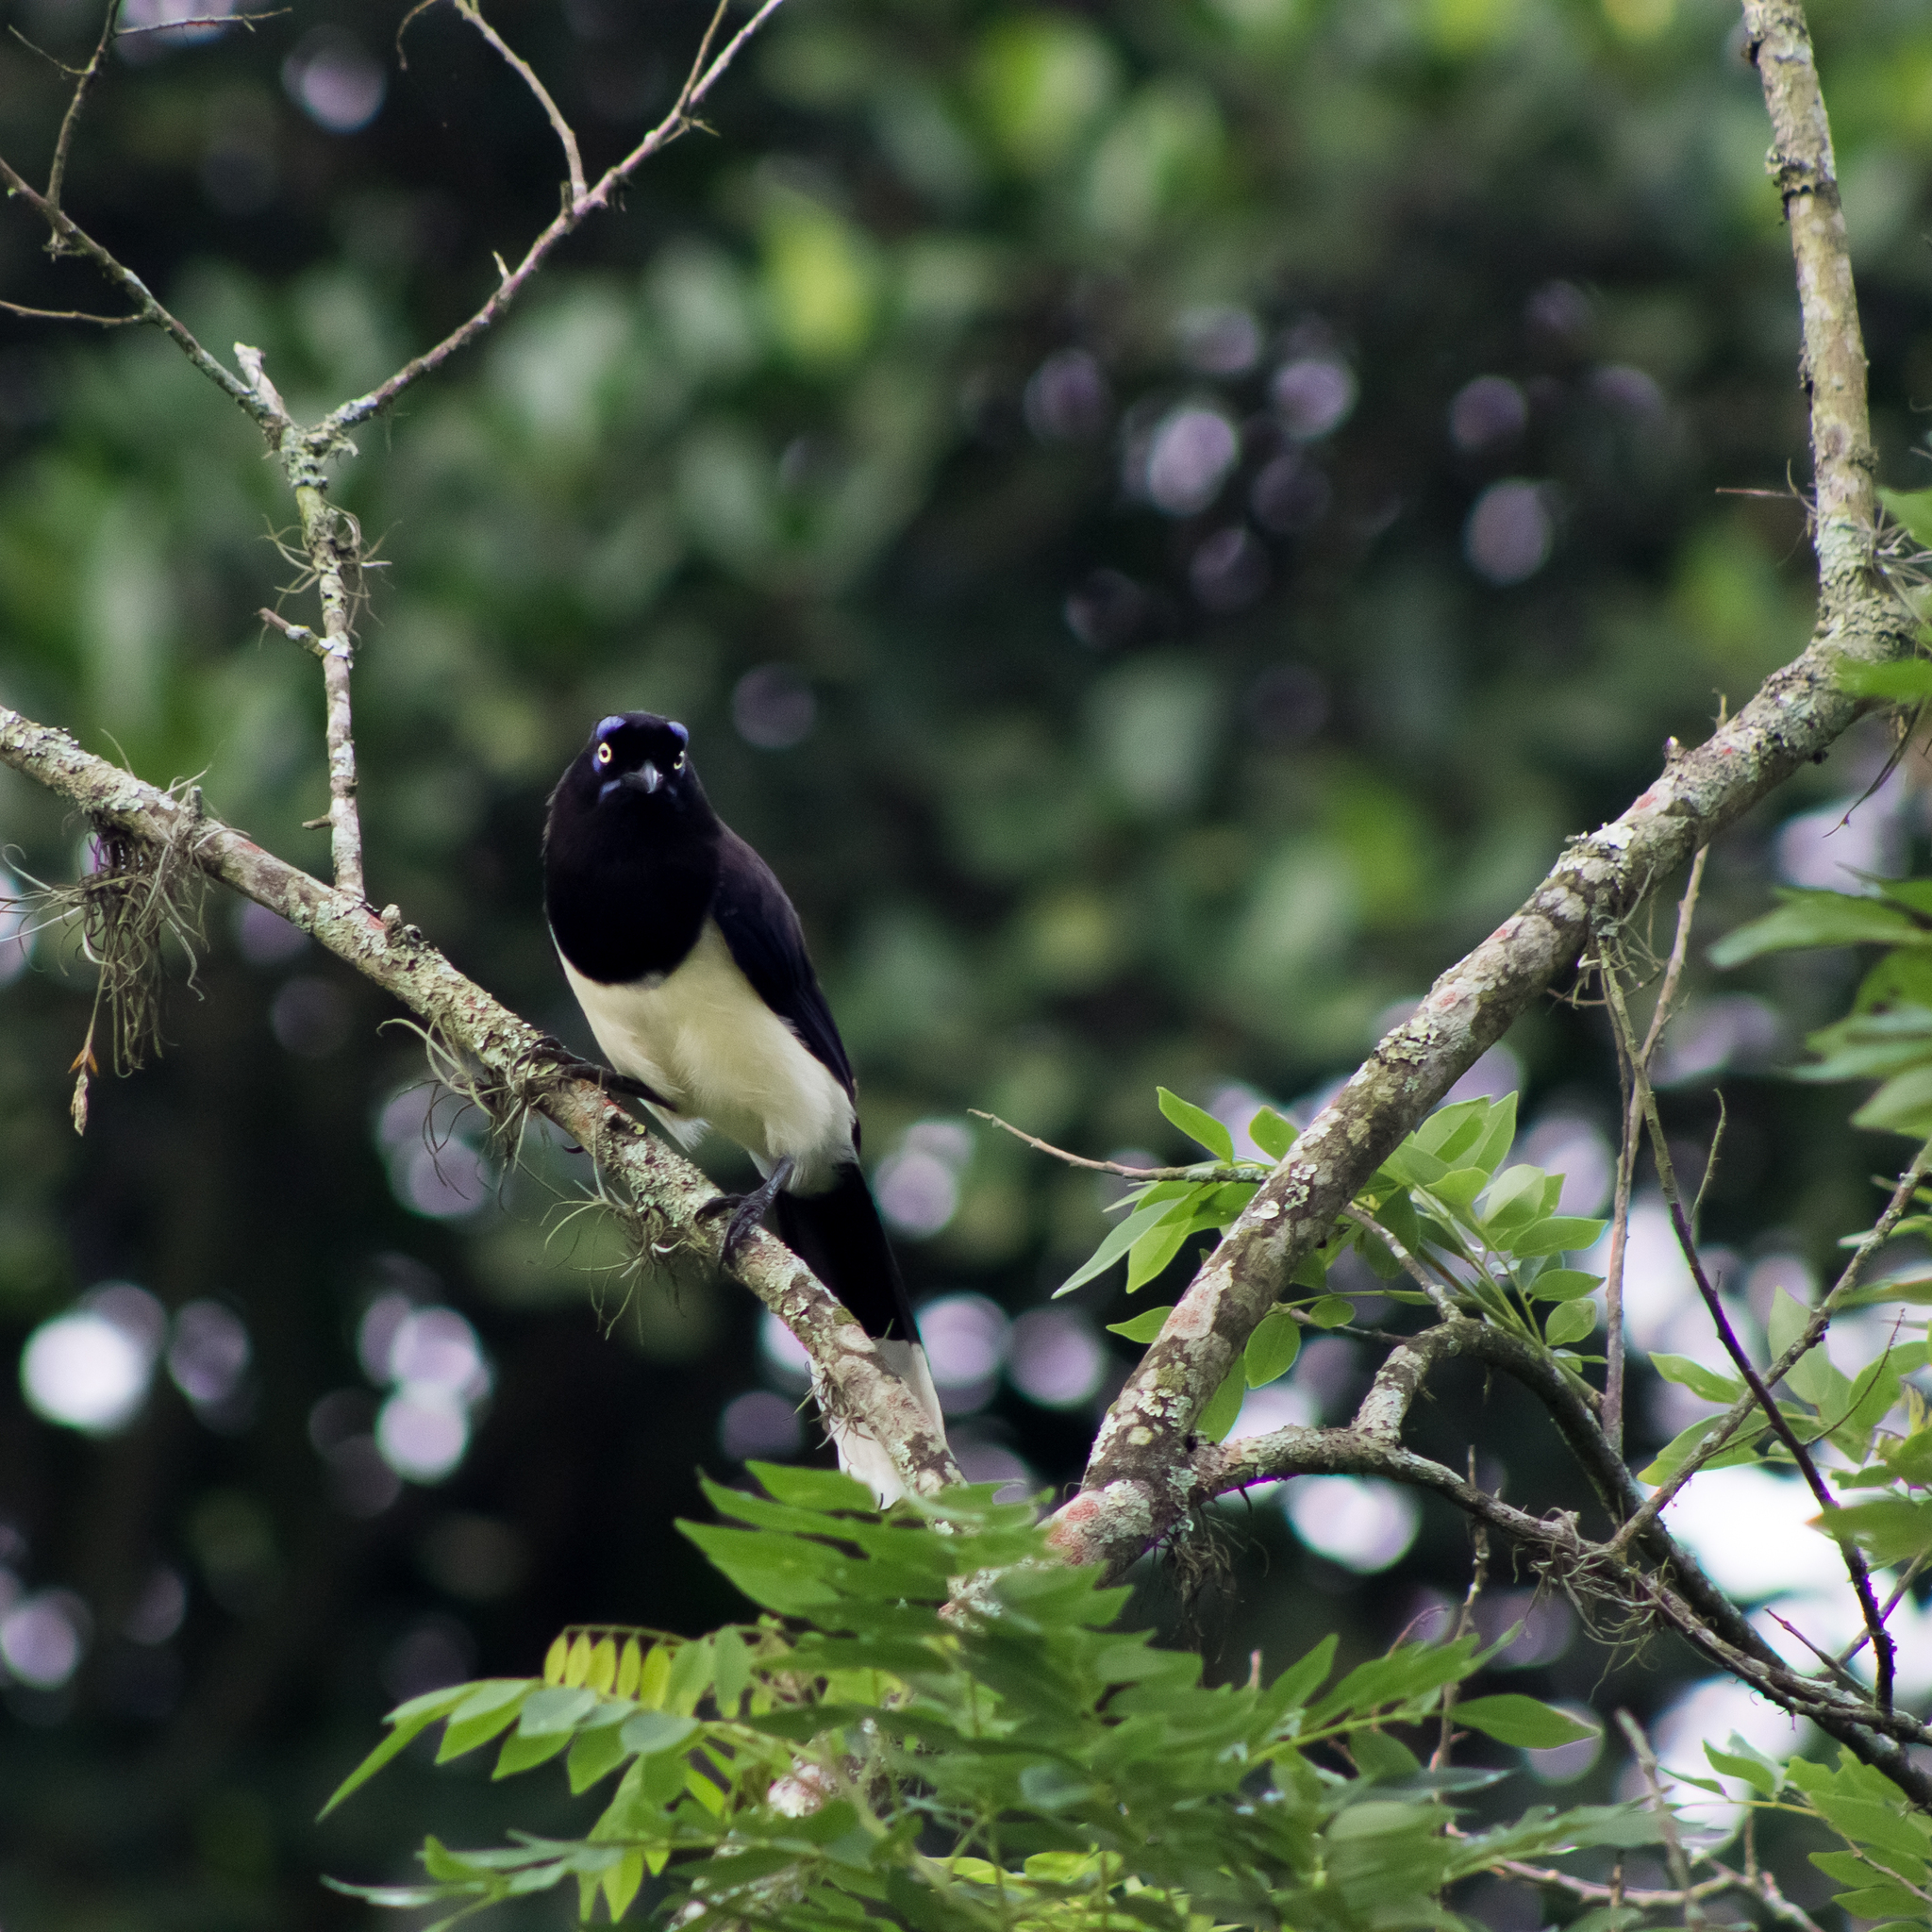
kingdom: Animalia
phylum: Chordata
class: Aves
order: Passeriformes
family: Corvidae
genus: Cyanocorax
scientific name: Cyanocorax affinis
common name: Black-chested jay
